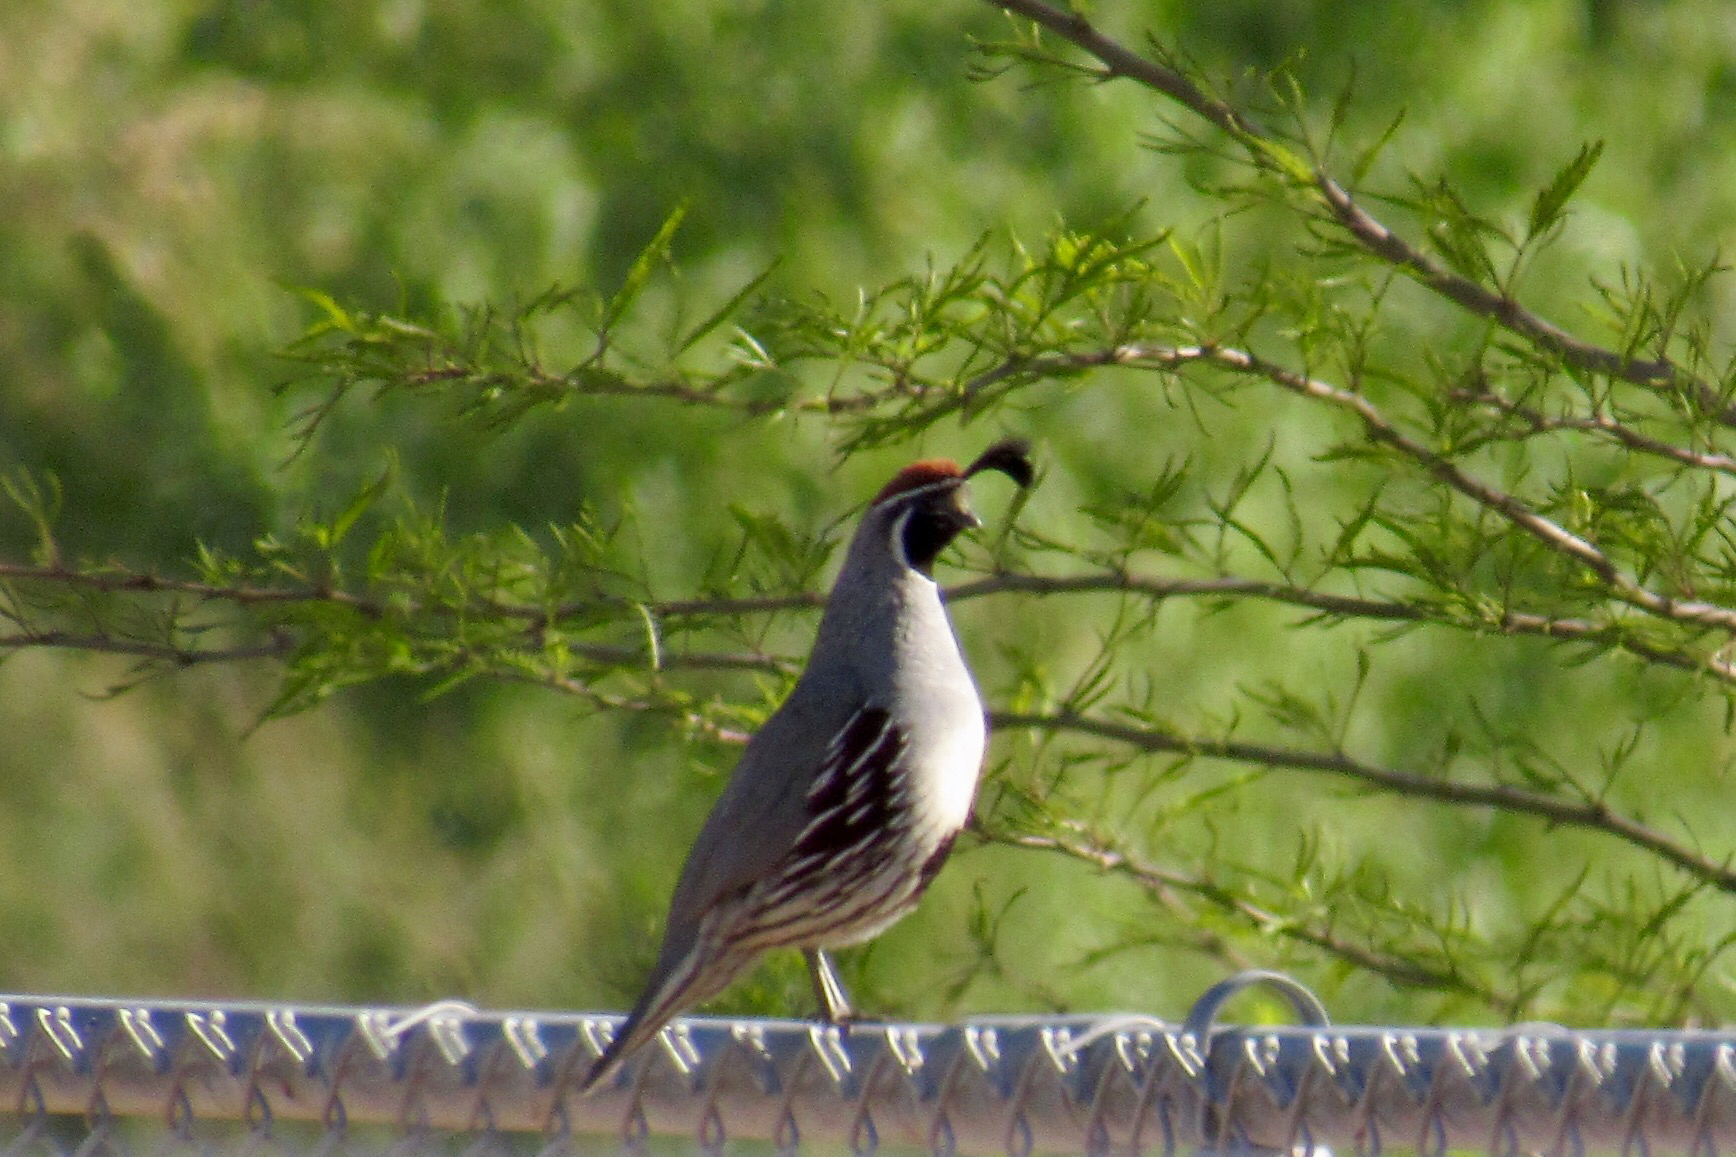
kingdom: Animalia
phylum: Chordata
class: Aves
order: Galliformes
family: Odontophoridae
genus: Callipepla
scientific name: Callipepla gambelii
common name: Gambel's quail
